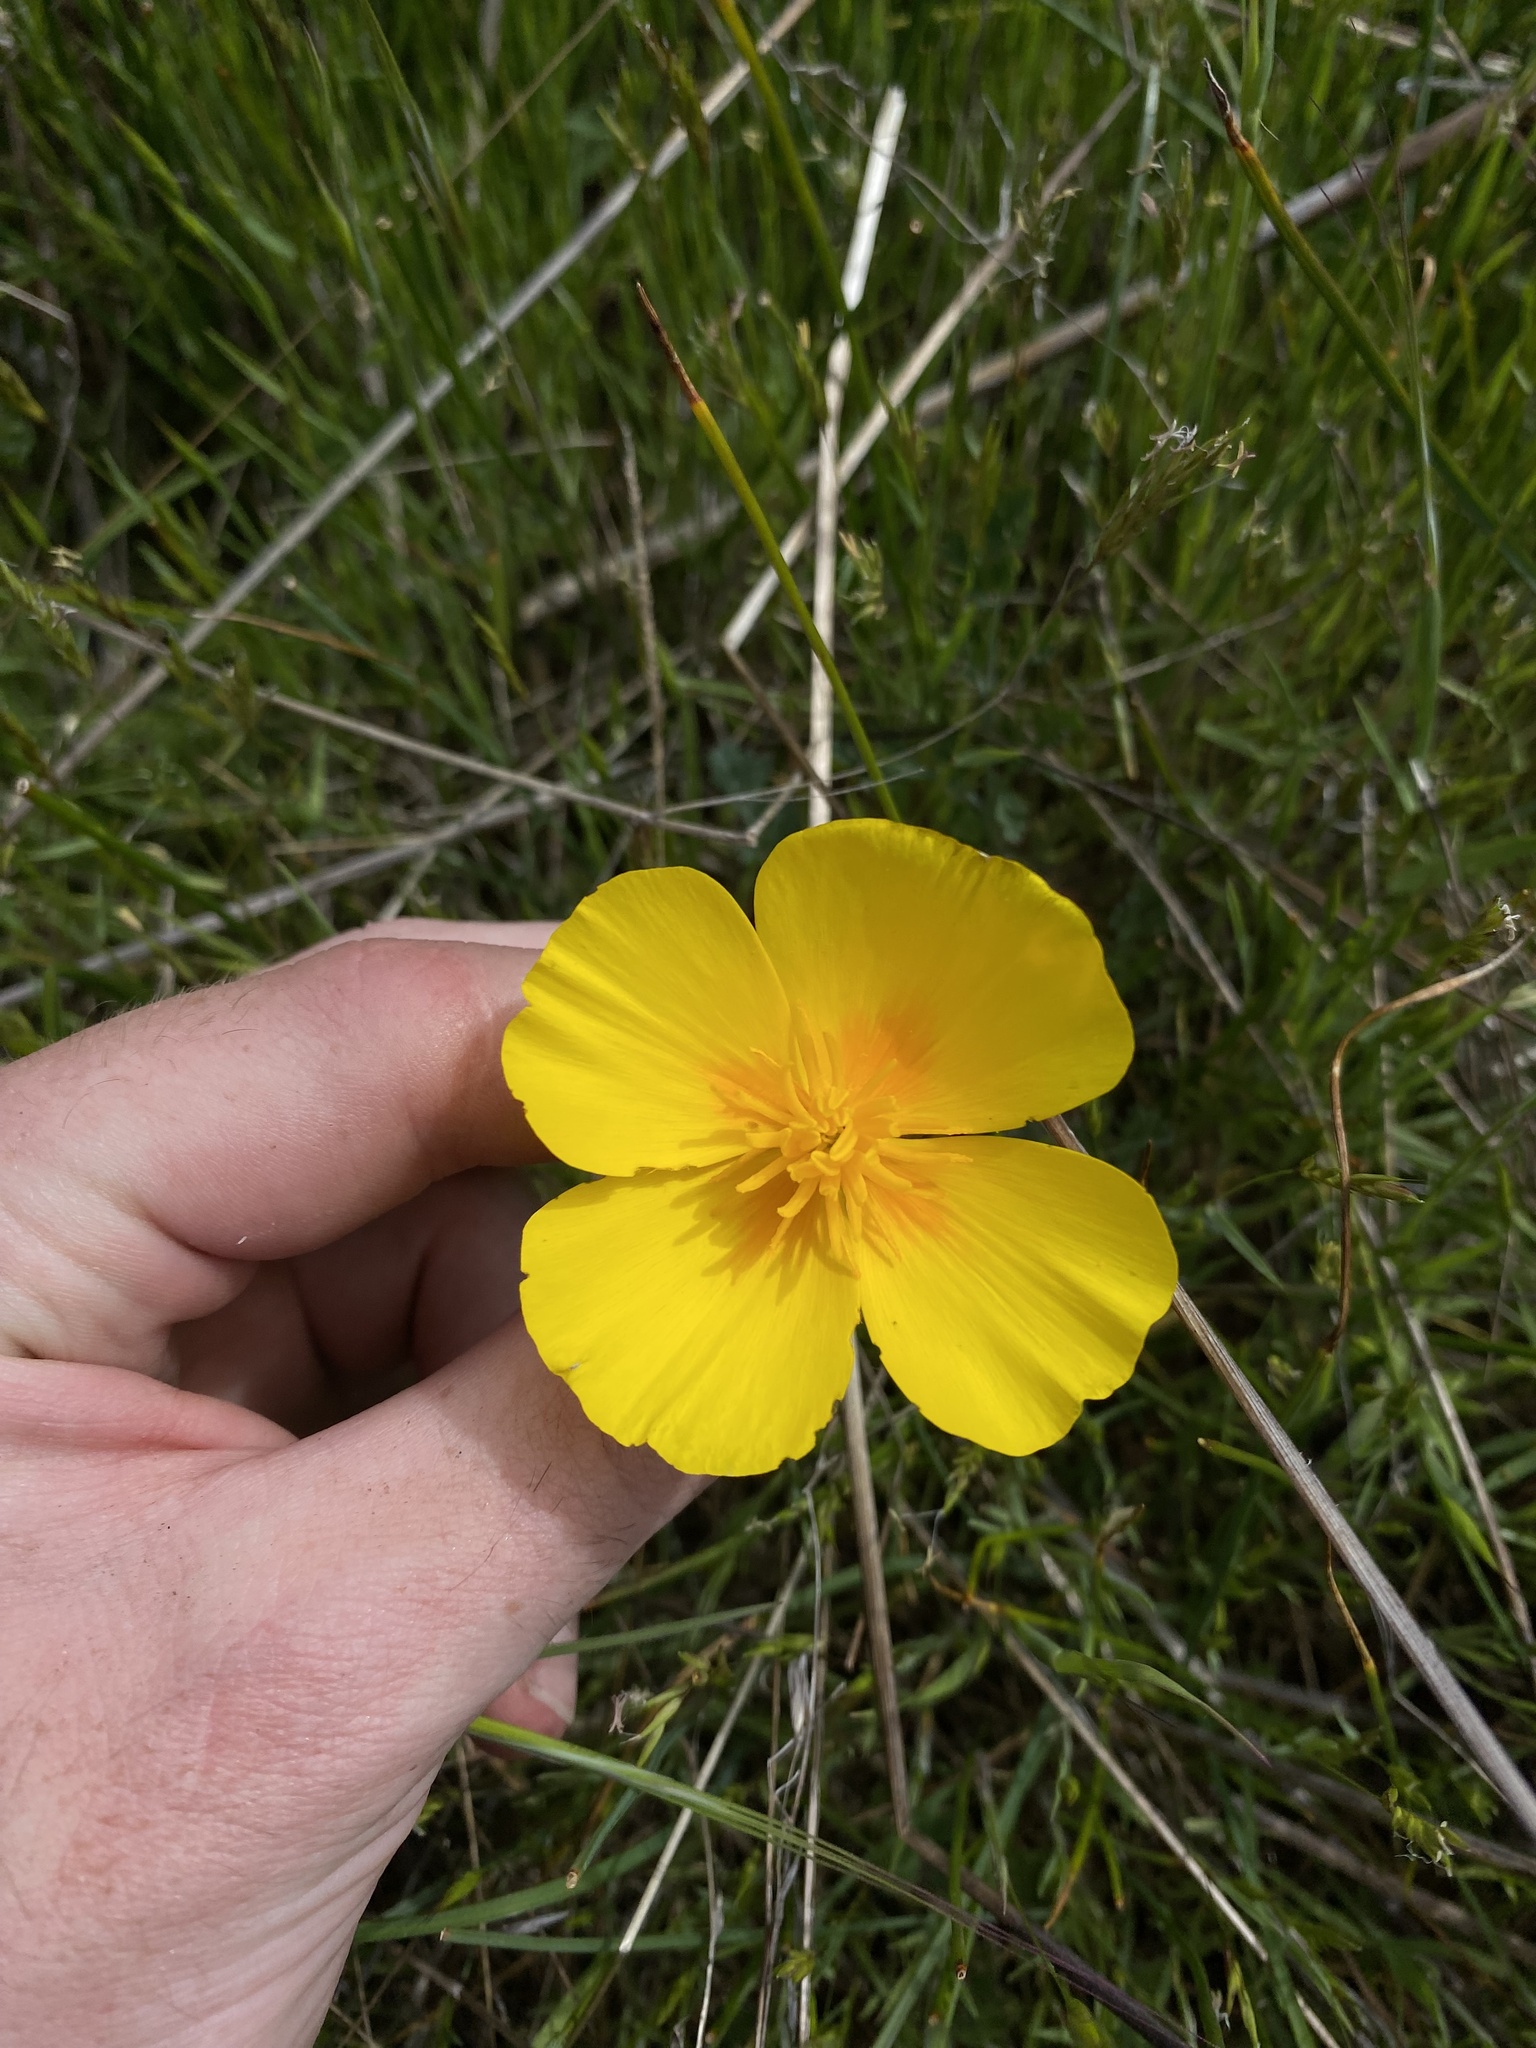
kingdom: Plantae
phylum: Tracheophyta
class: Magnoliopsida
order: Ranunculales
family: Papaveraceae
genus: Eschscholzia
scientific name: Eschscholzia californica
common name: California poppy
